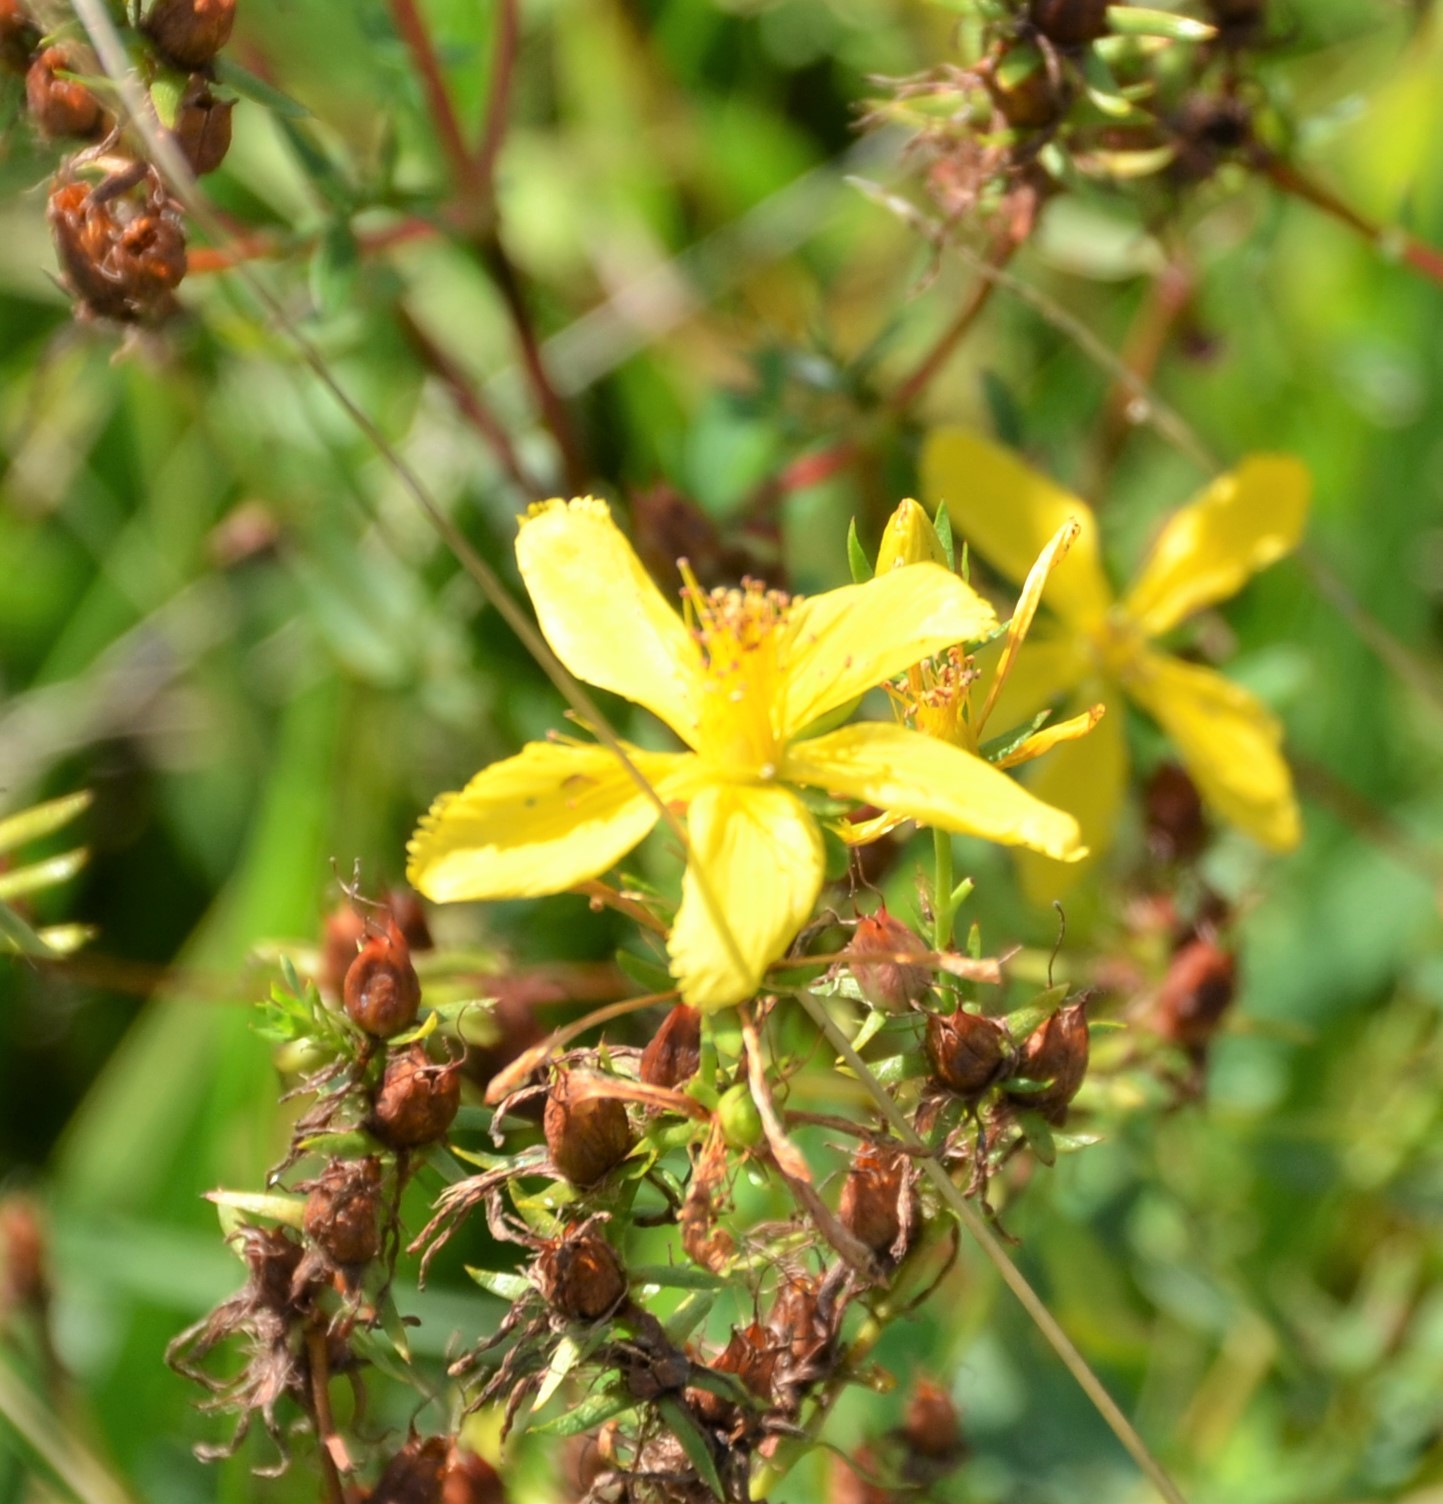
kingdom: Plantae
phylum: Tracheophyta
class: Magnoliopsida
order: Malpighiales
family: Hypericaceae
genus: Hypericum
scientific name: Hypericum perforatum
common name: Common st. johnswort
